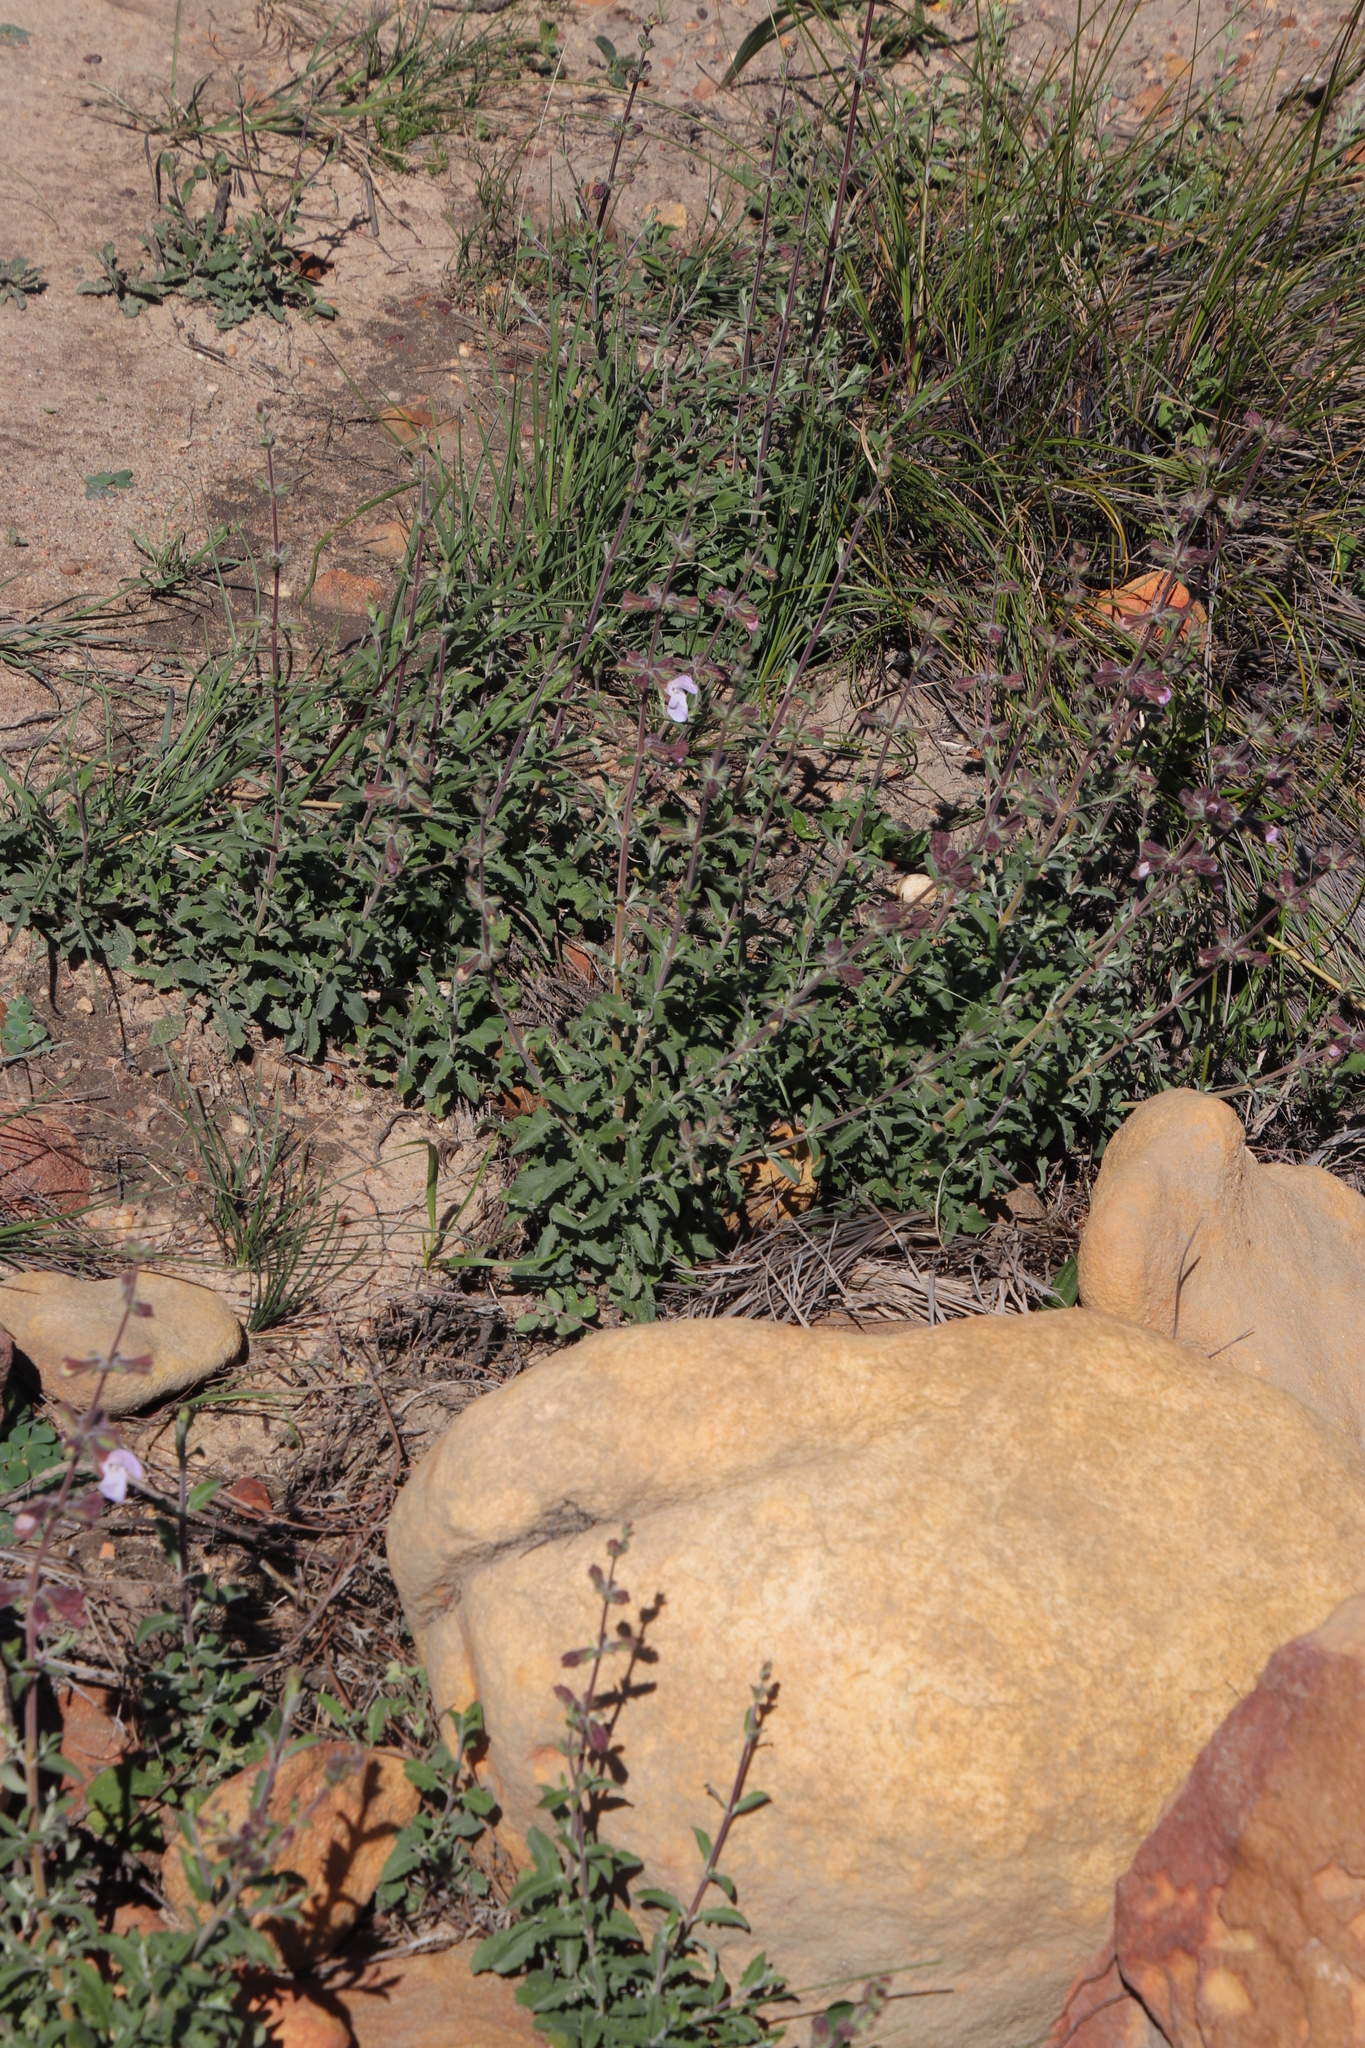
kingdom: Plantae
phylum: Tracheophyta
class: Magnoliopsida
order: Lamiales
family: Lamiaceae
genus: Salvia
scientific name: Salvia africana
